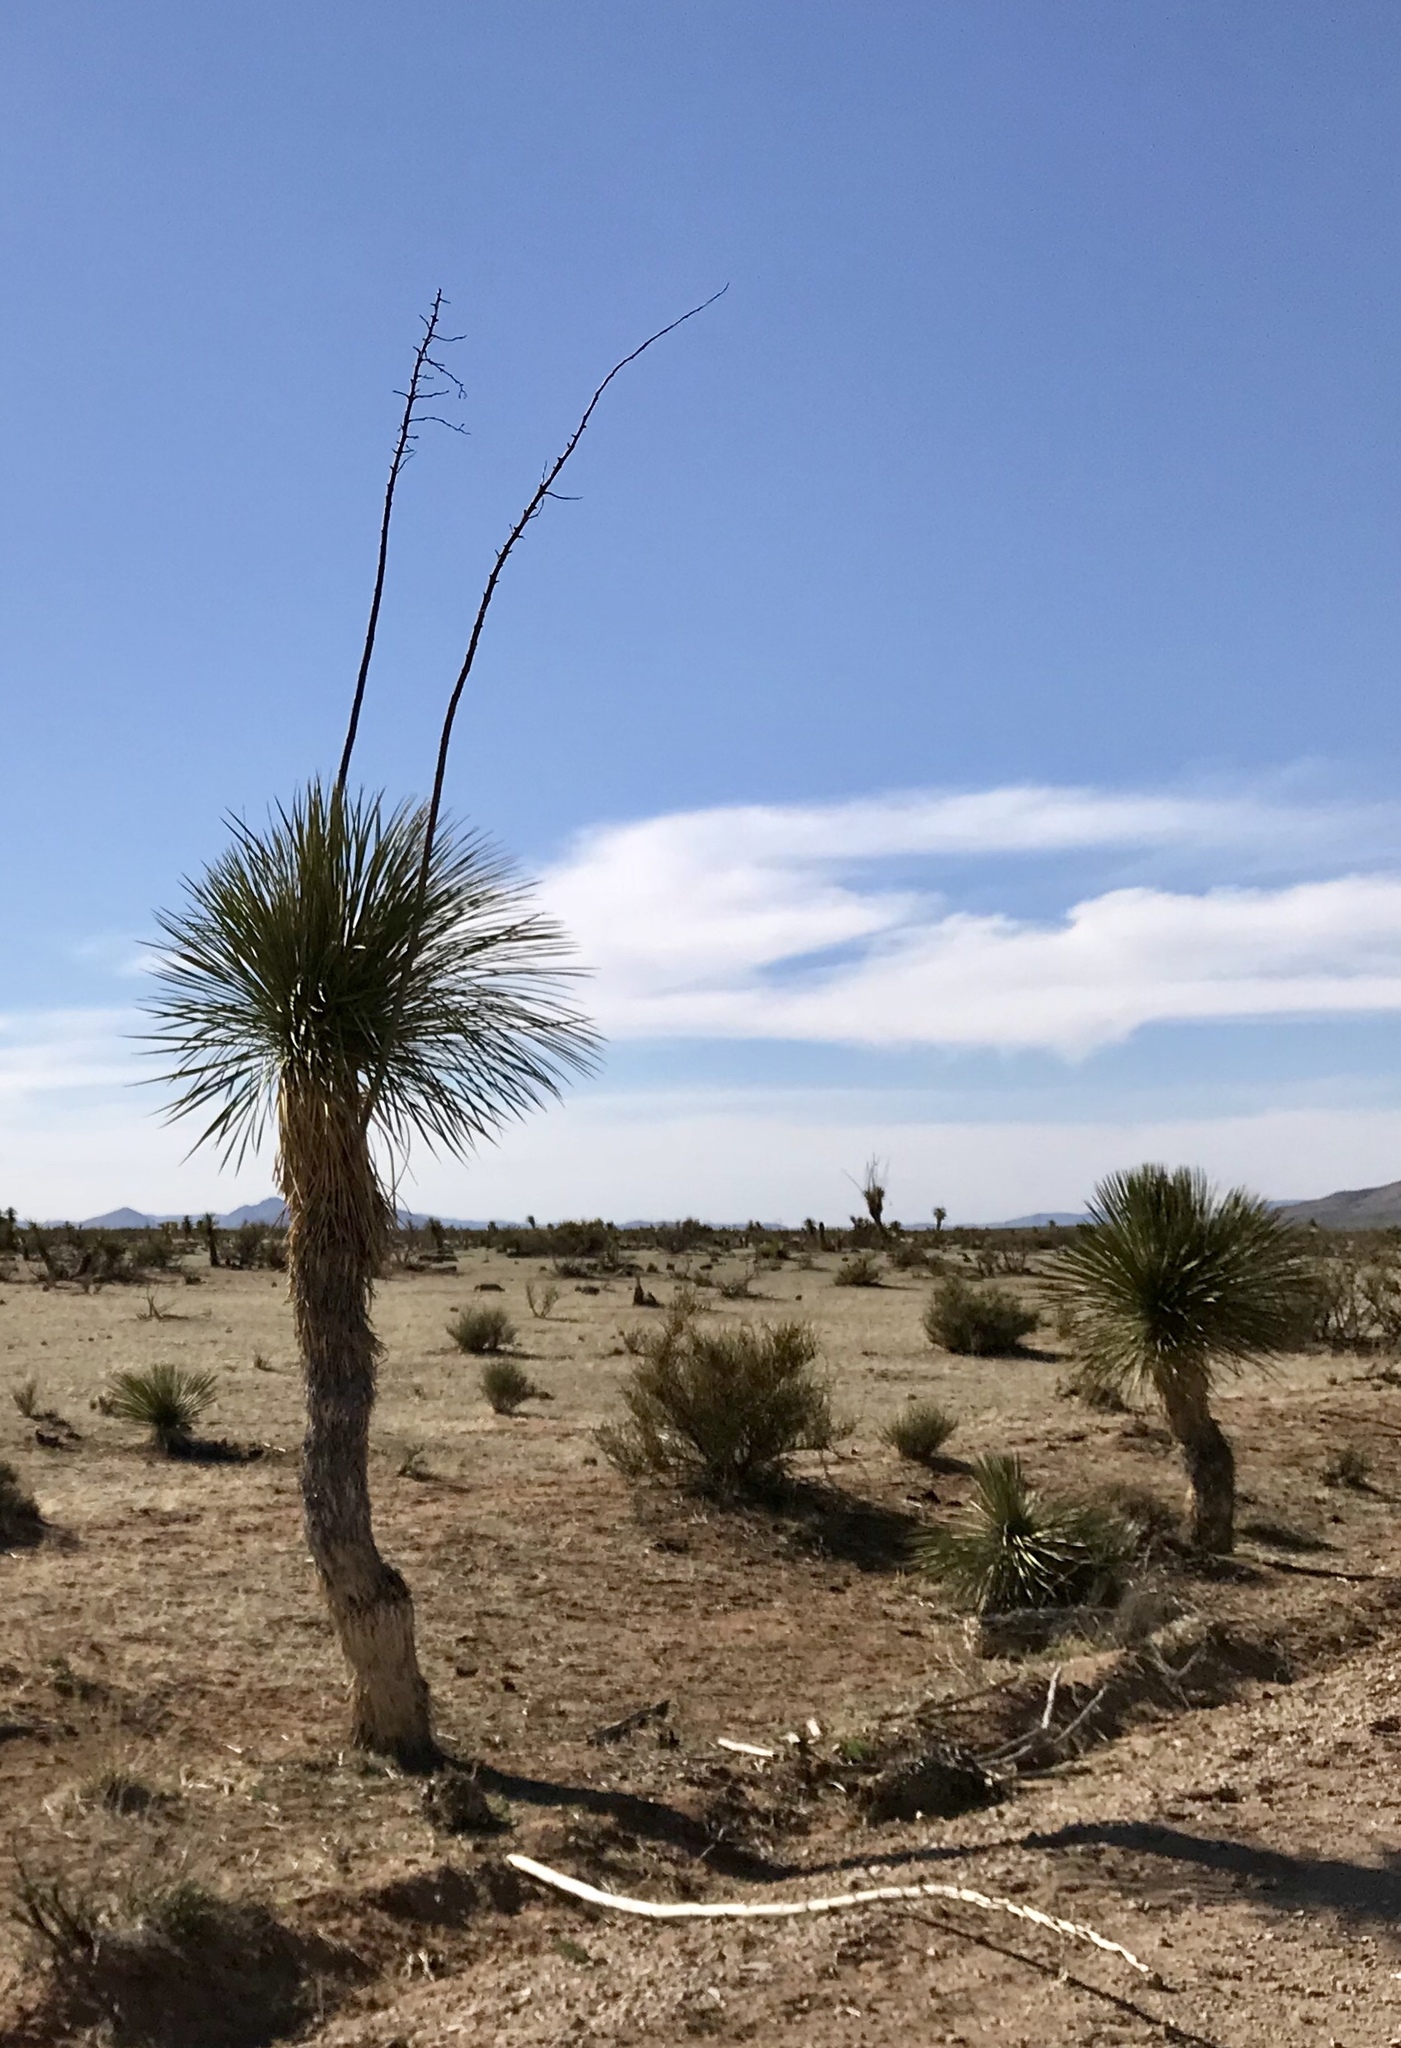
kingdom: Plantae
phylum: Tracheophyta
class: Liliopsida
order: Asparagales
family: Asparagaceae
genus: Yucca
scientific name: Yucca elata
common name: Palmella
